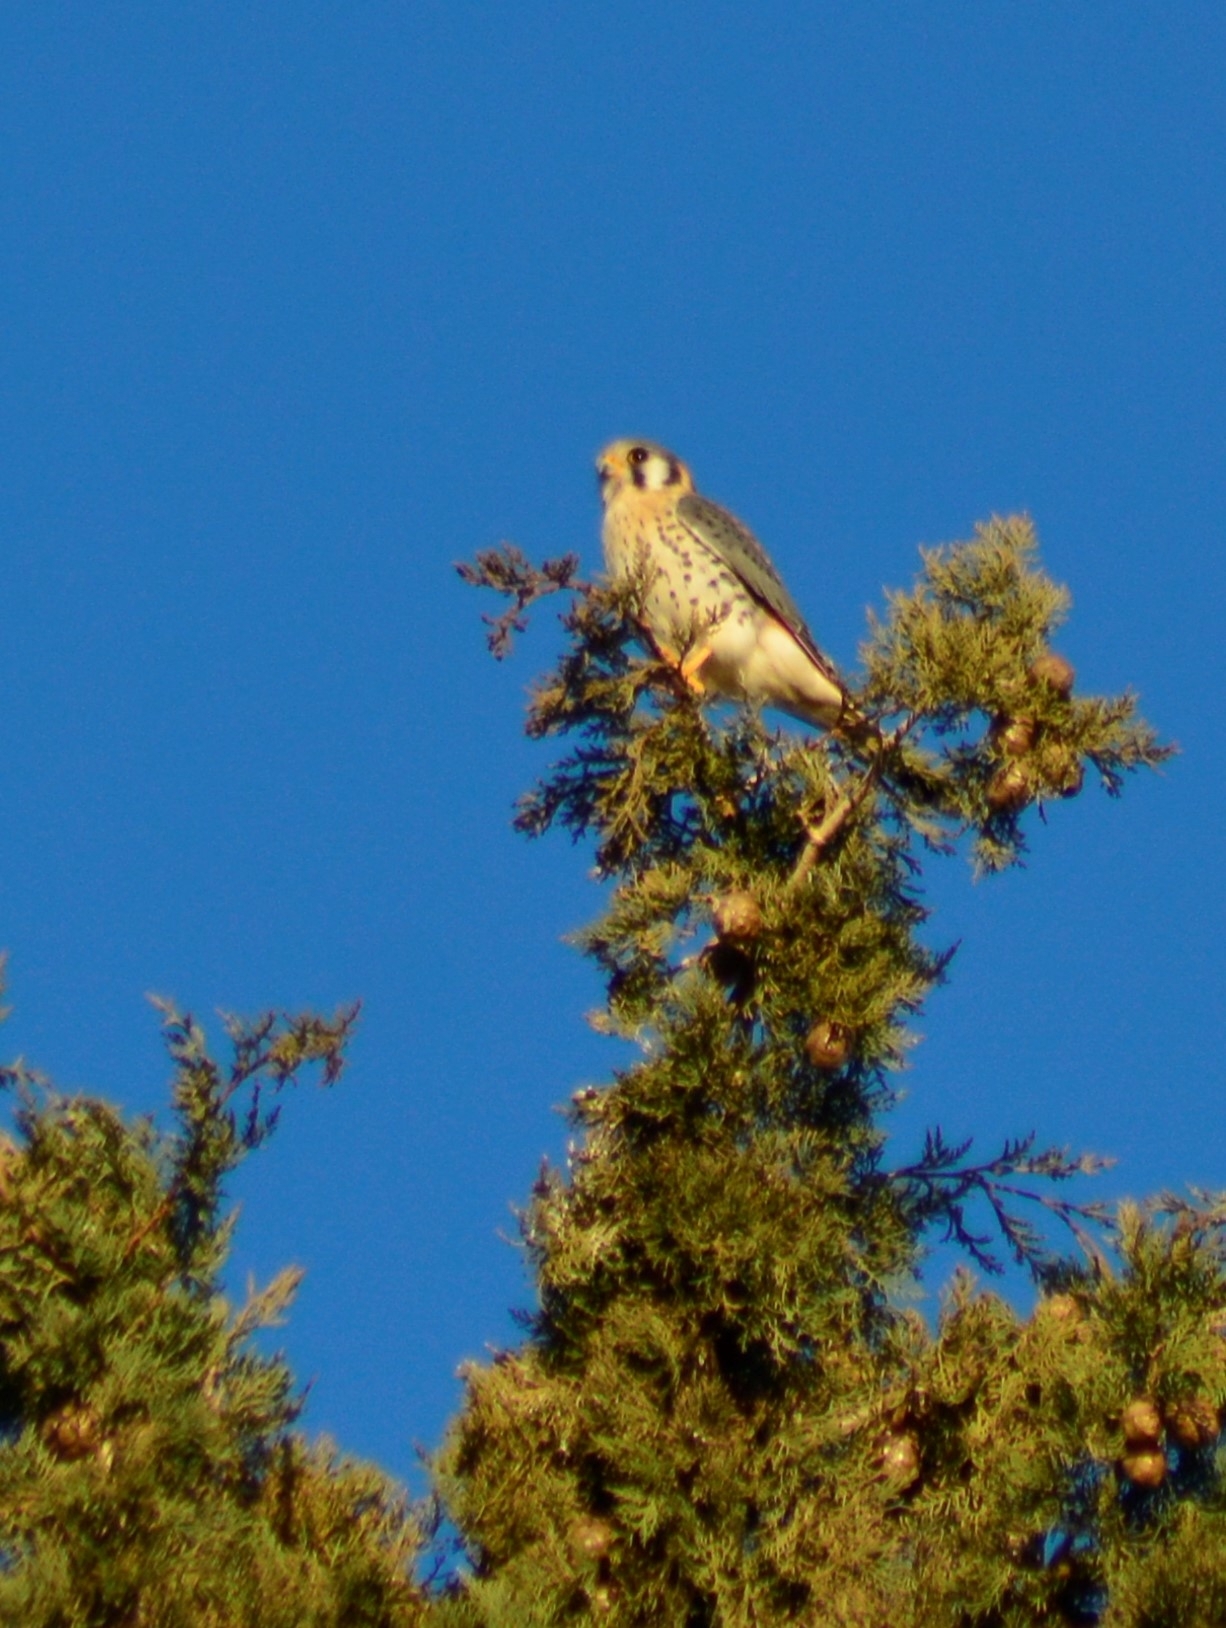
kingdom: Animalia
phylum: Chordata
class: Aves
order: Falconiformes
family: Falconidae
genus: Falco
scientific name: Falco sparverius
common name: American kestrel
